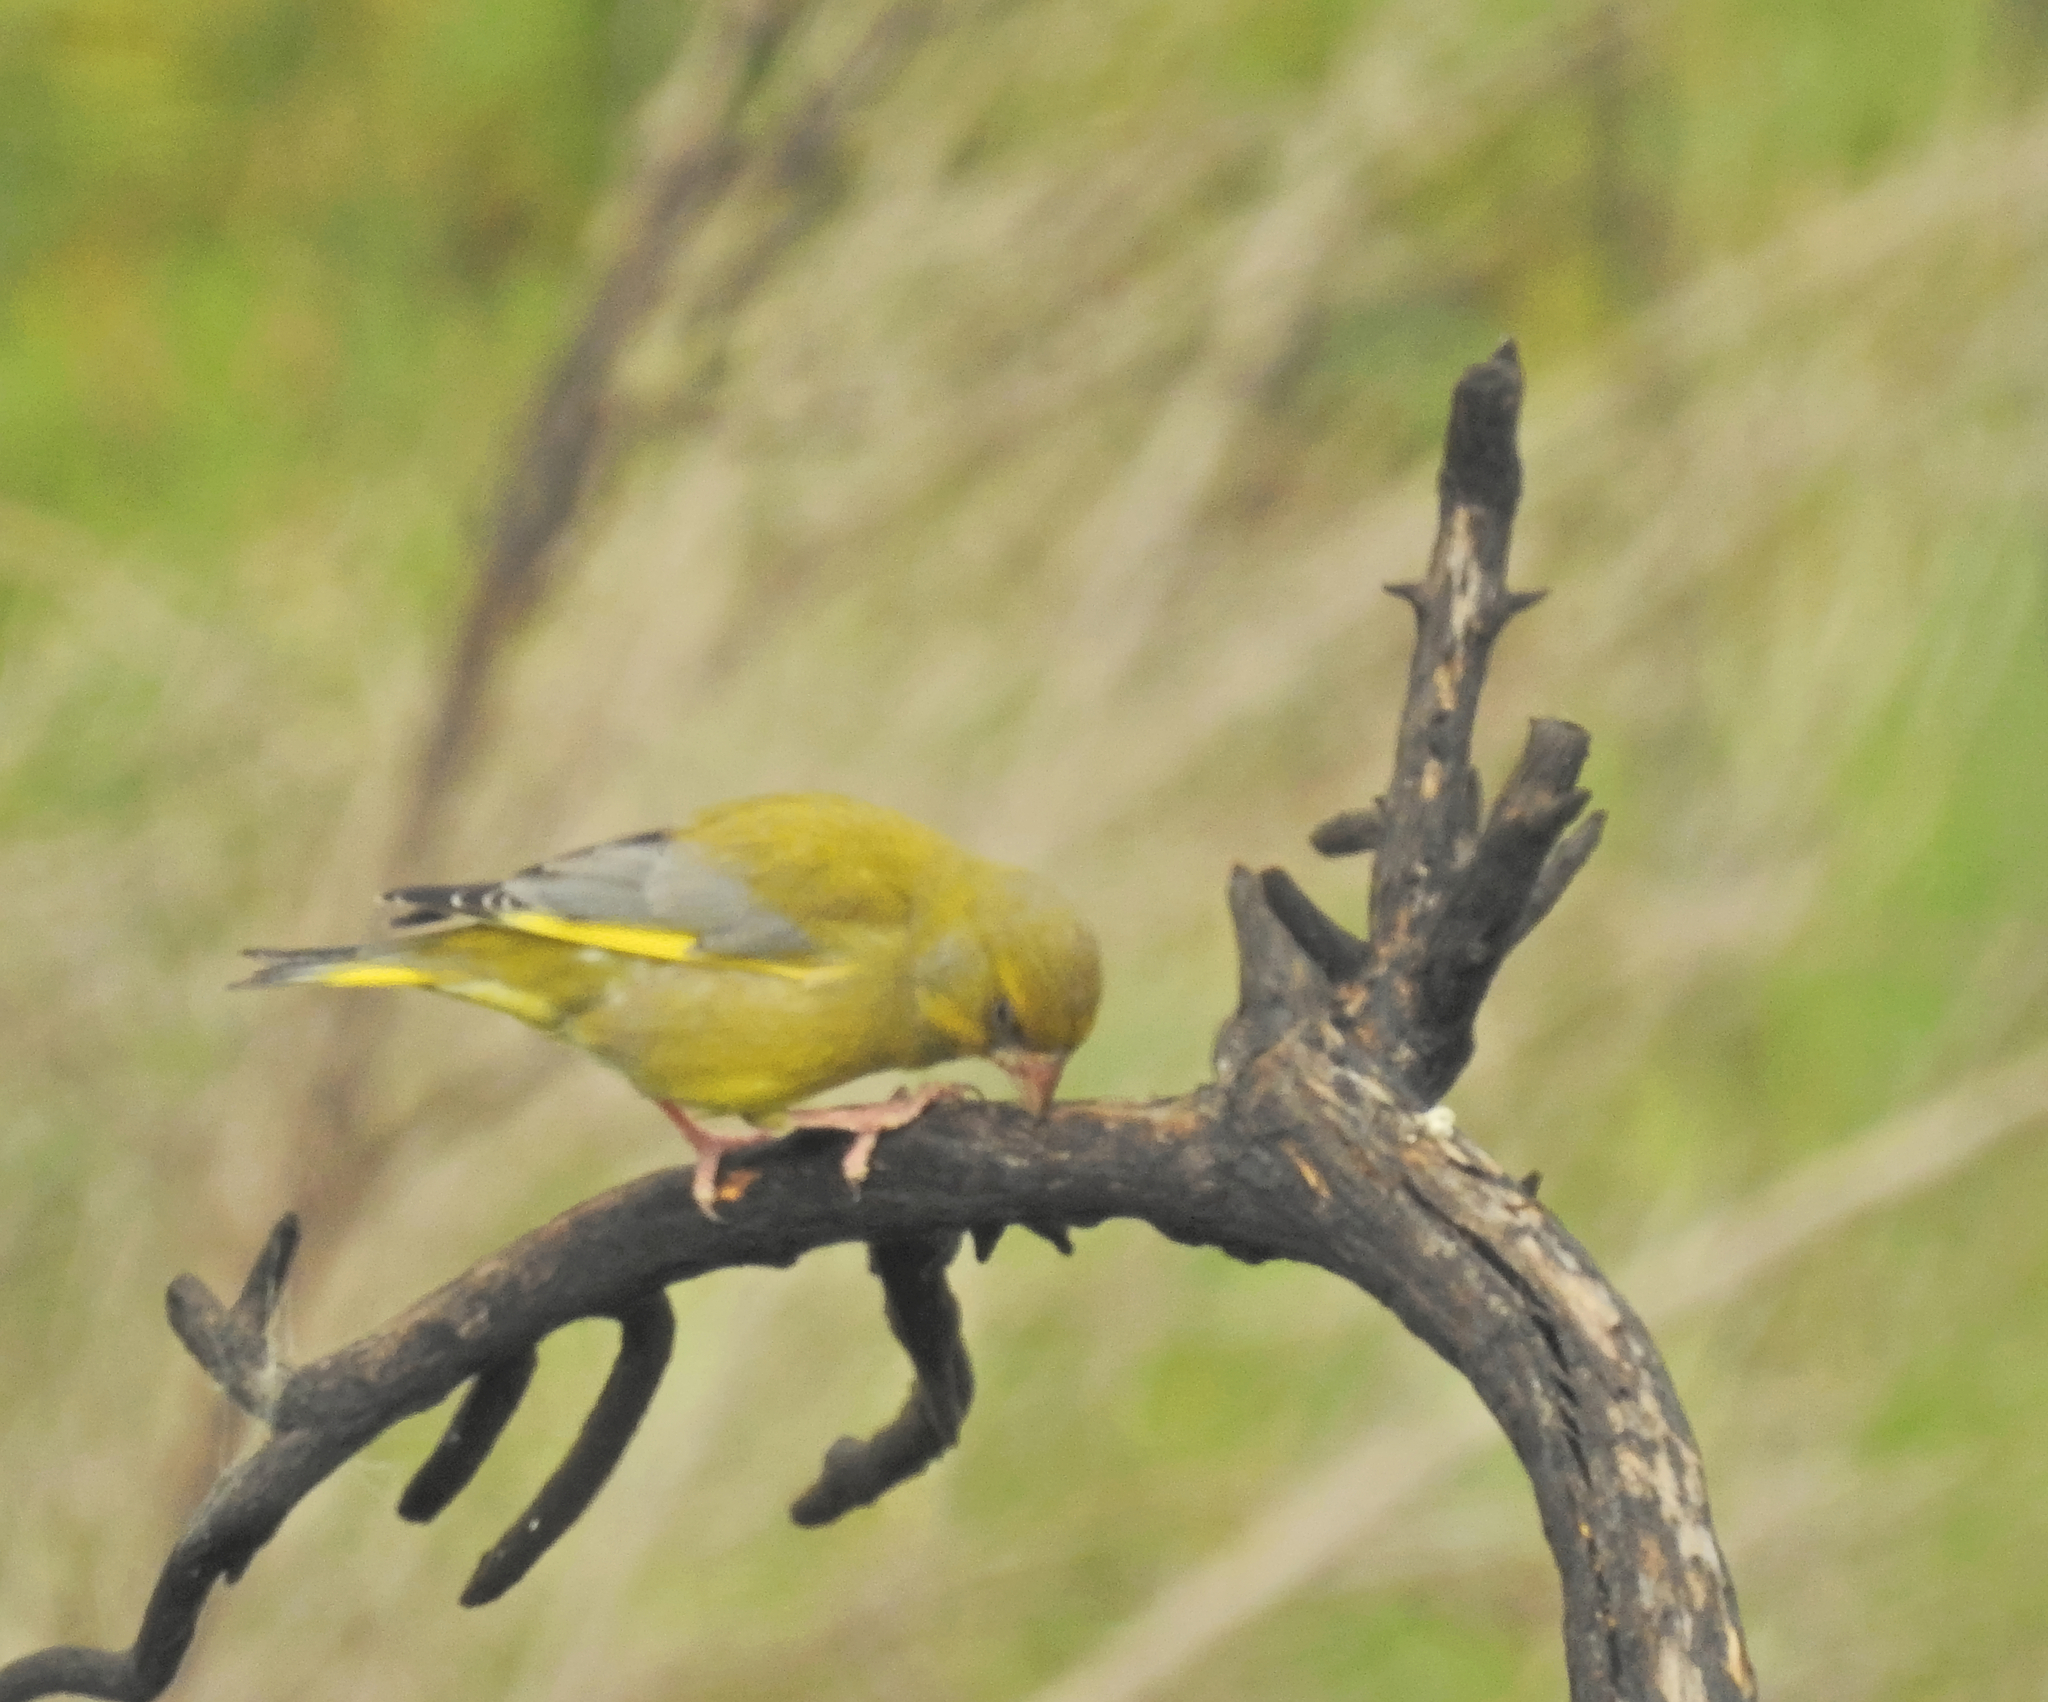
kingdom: Plantae
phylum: Tracheophyta
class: Liliopsida
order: Poales
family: Poaceae
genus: Chloris
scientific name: Chloris chloris
